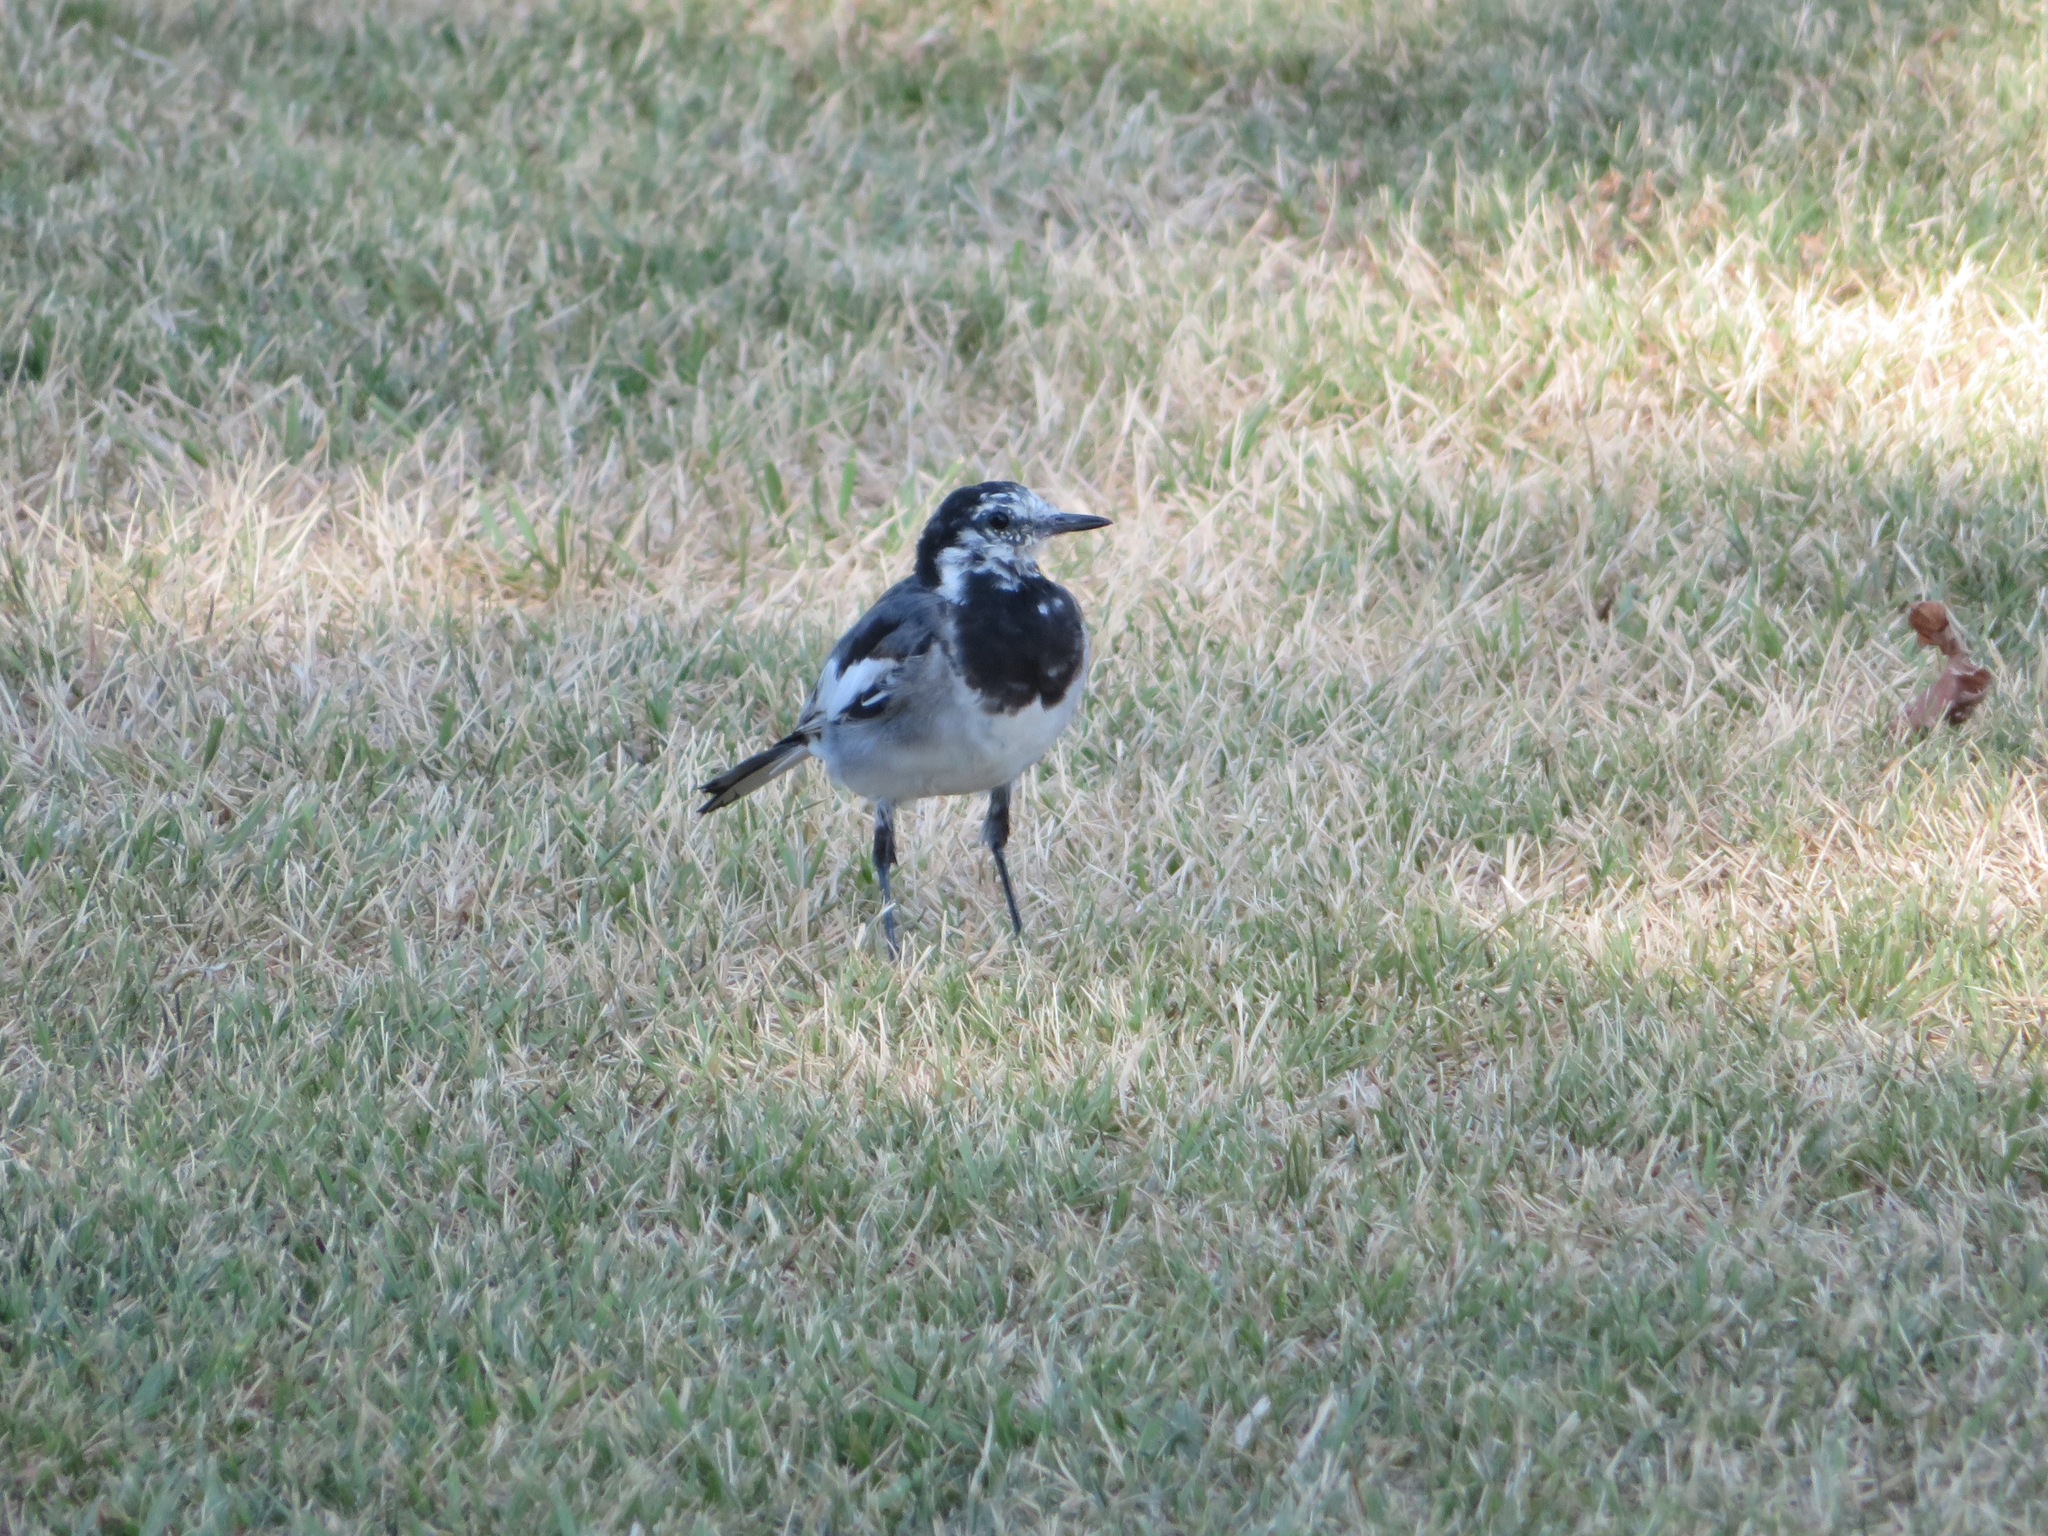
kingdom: Animalia
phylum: Chordata
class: Aves
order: Passeriformes
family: Motacillidae
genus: Motacilla
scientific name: Motacilla alba
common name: White wagtail
